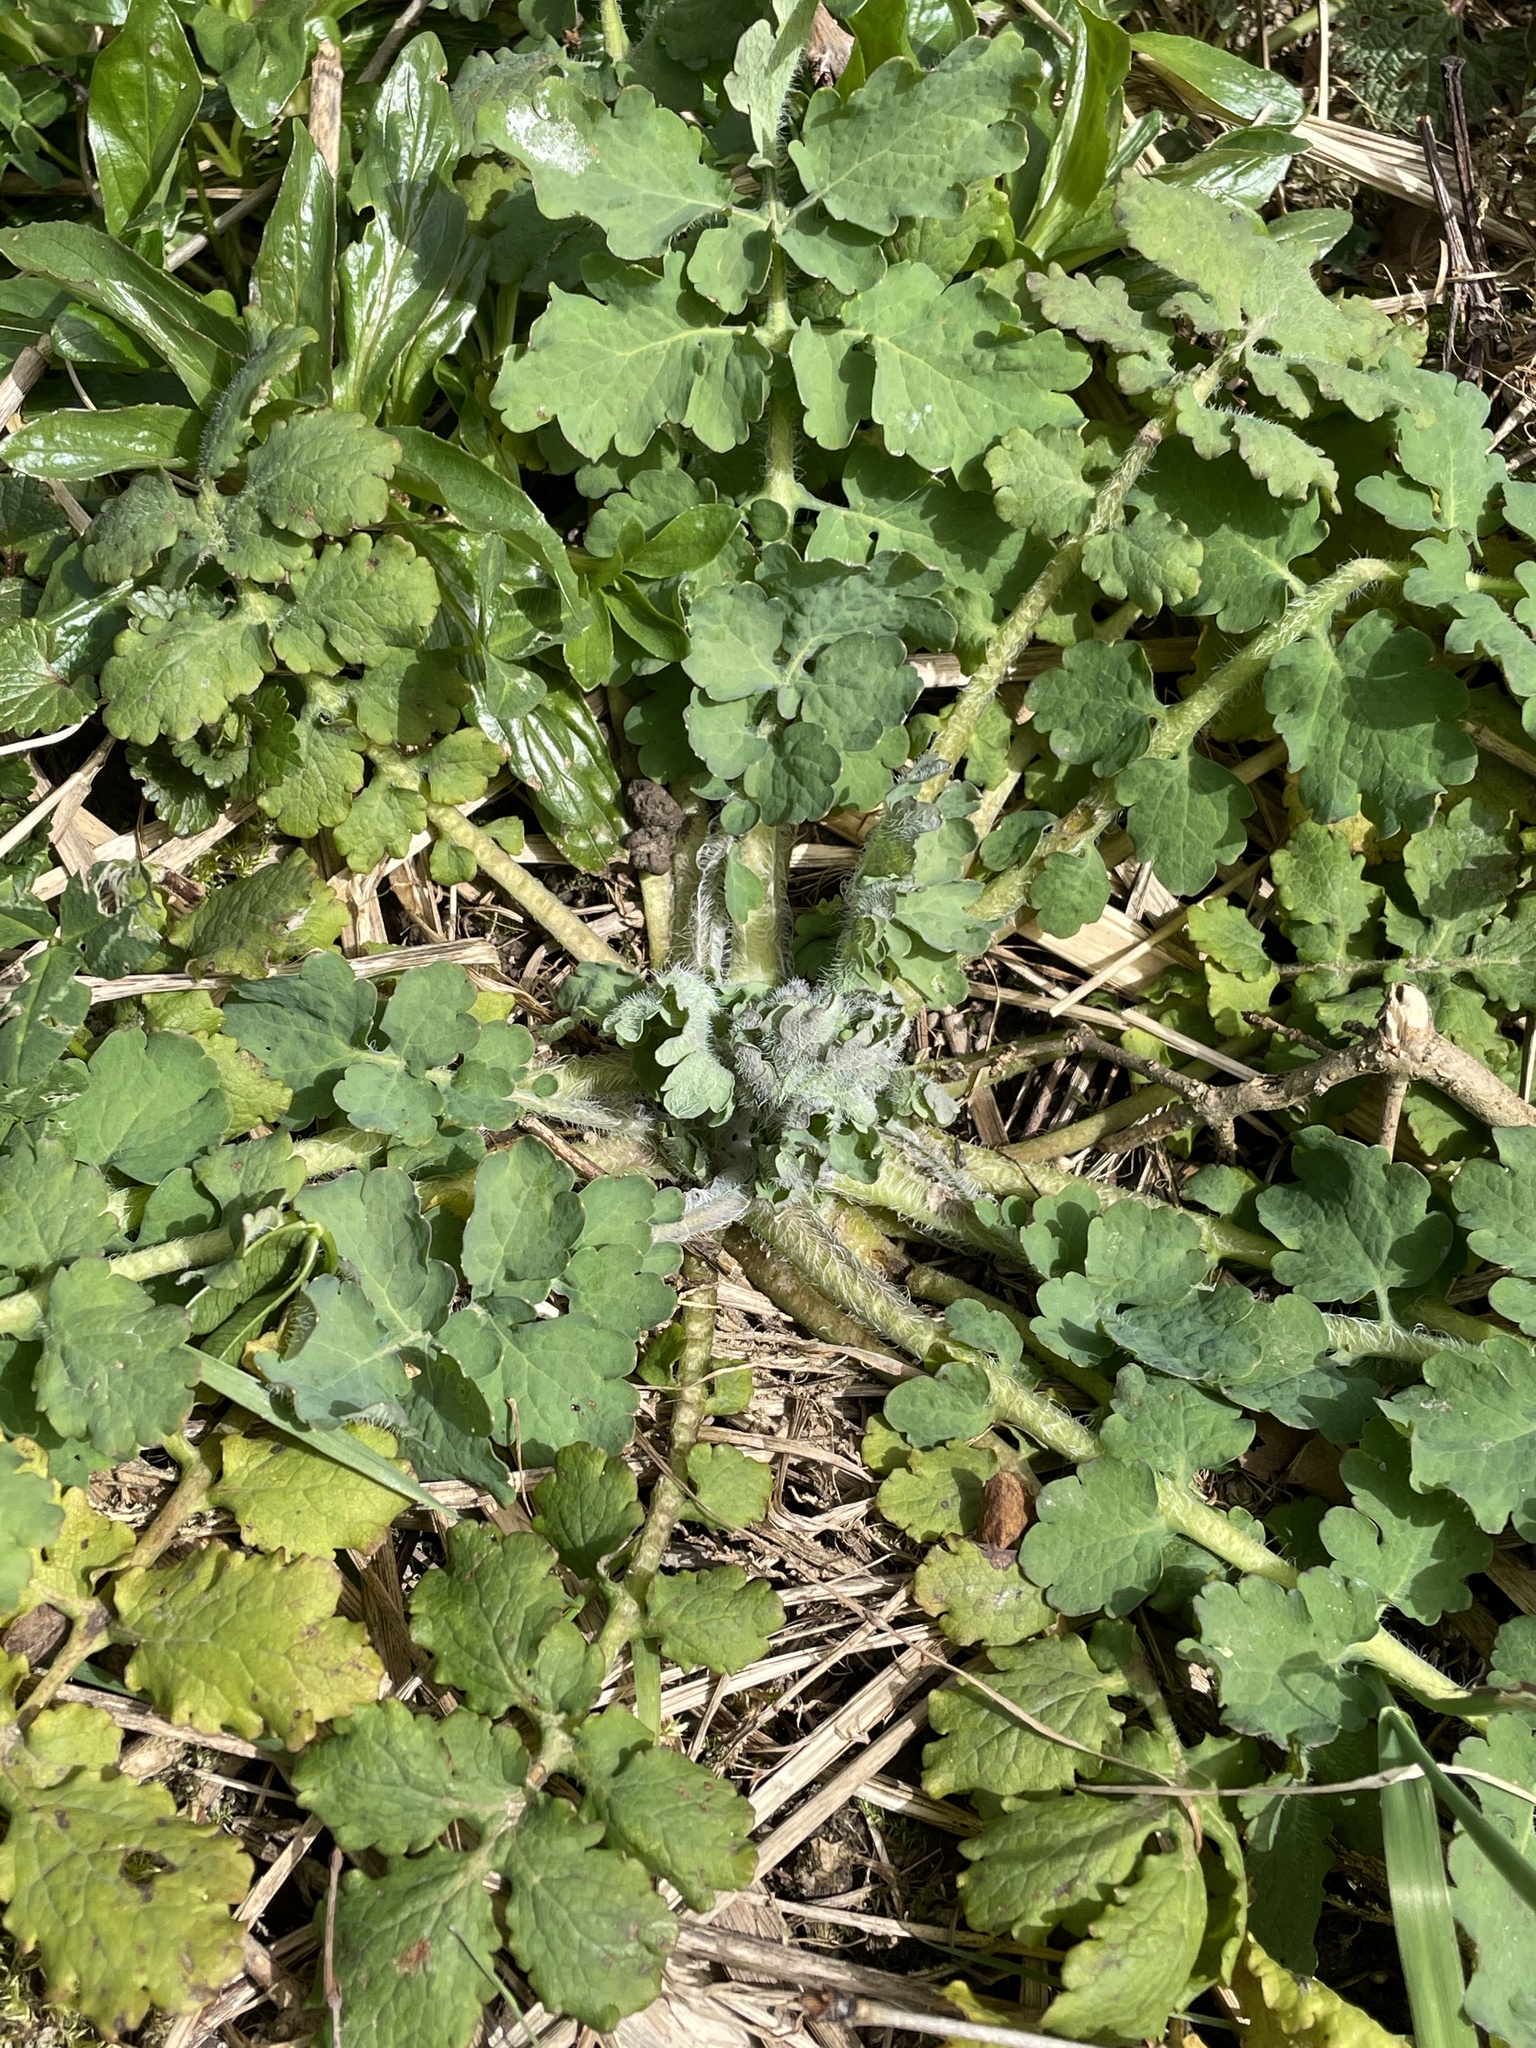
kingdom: Plantae
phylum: Tracheophyta
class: Magnoliopsida
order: Ranunculales
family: Papaveraceae
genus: Chelidonium
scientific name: Chelidonium majus
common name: Greater celandine
